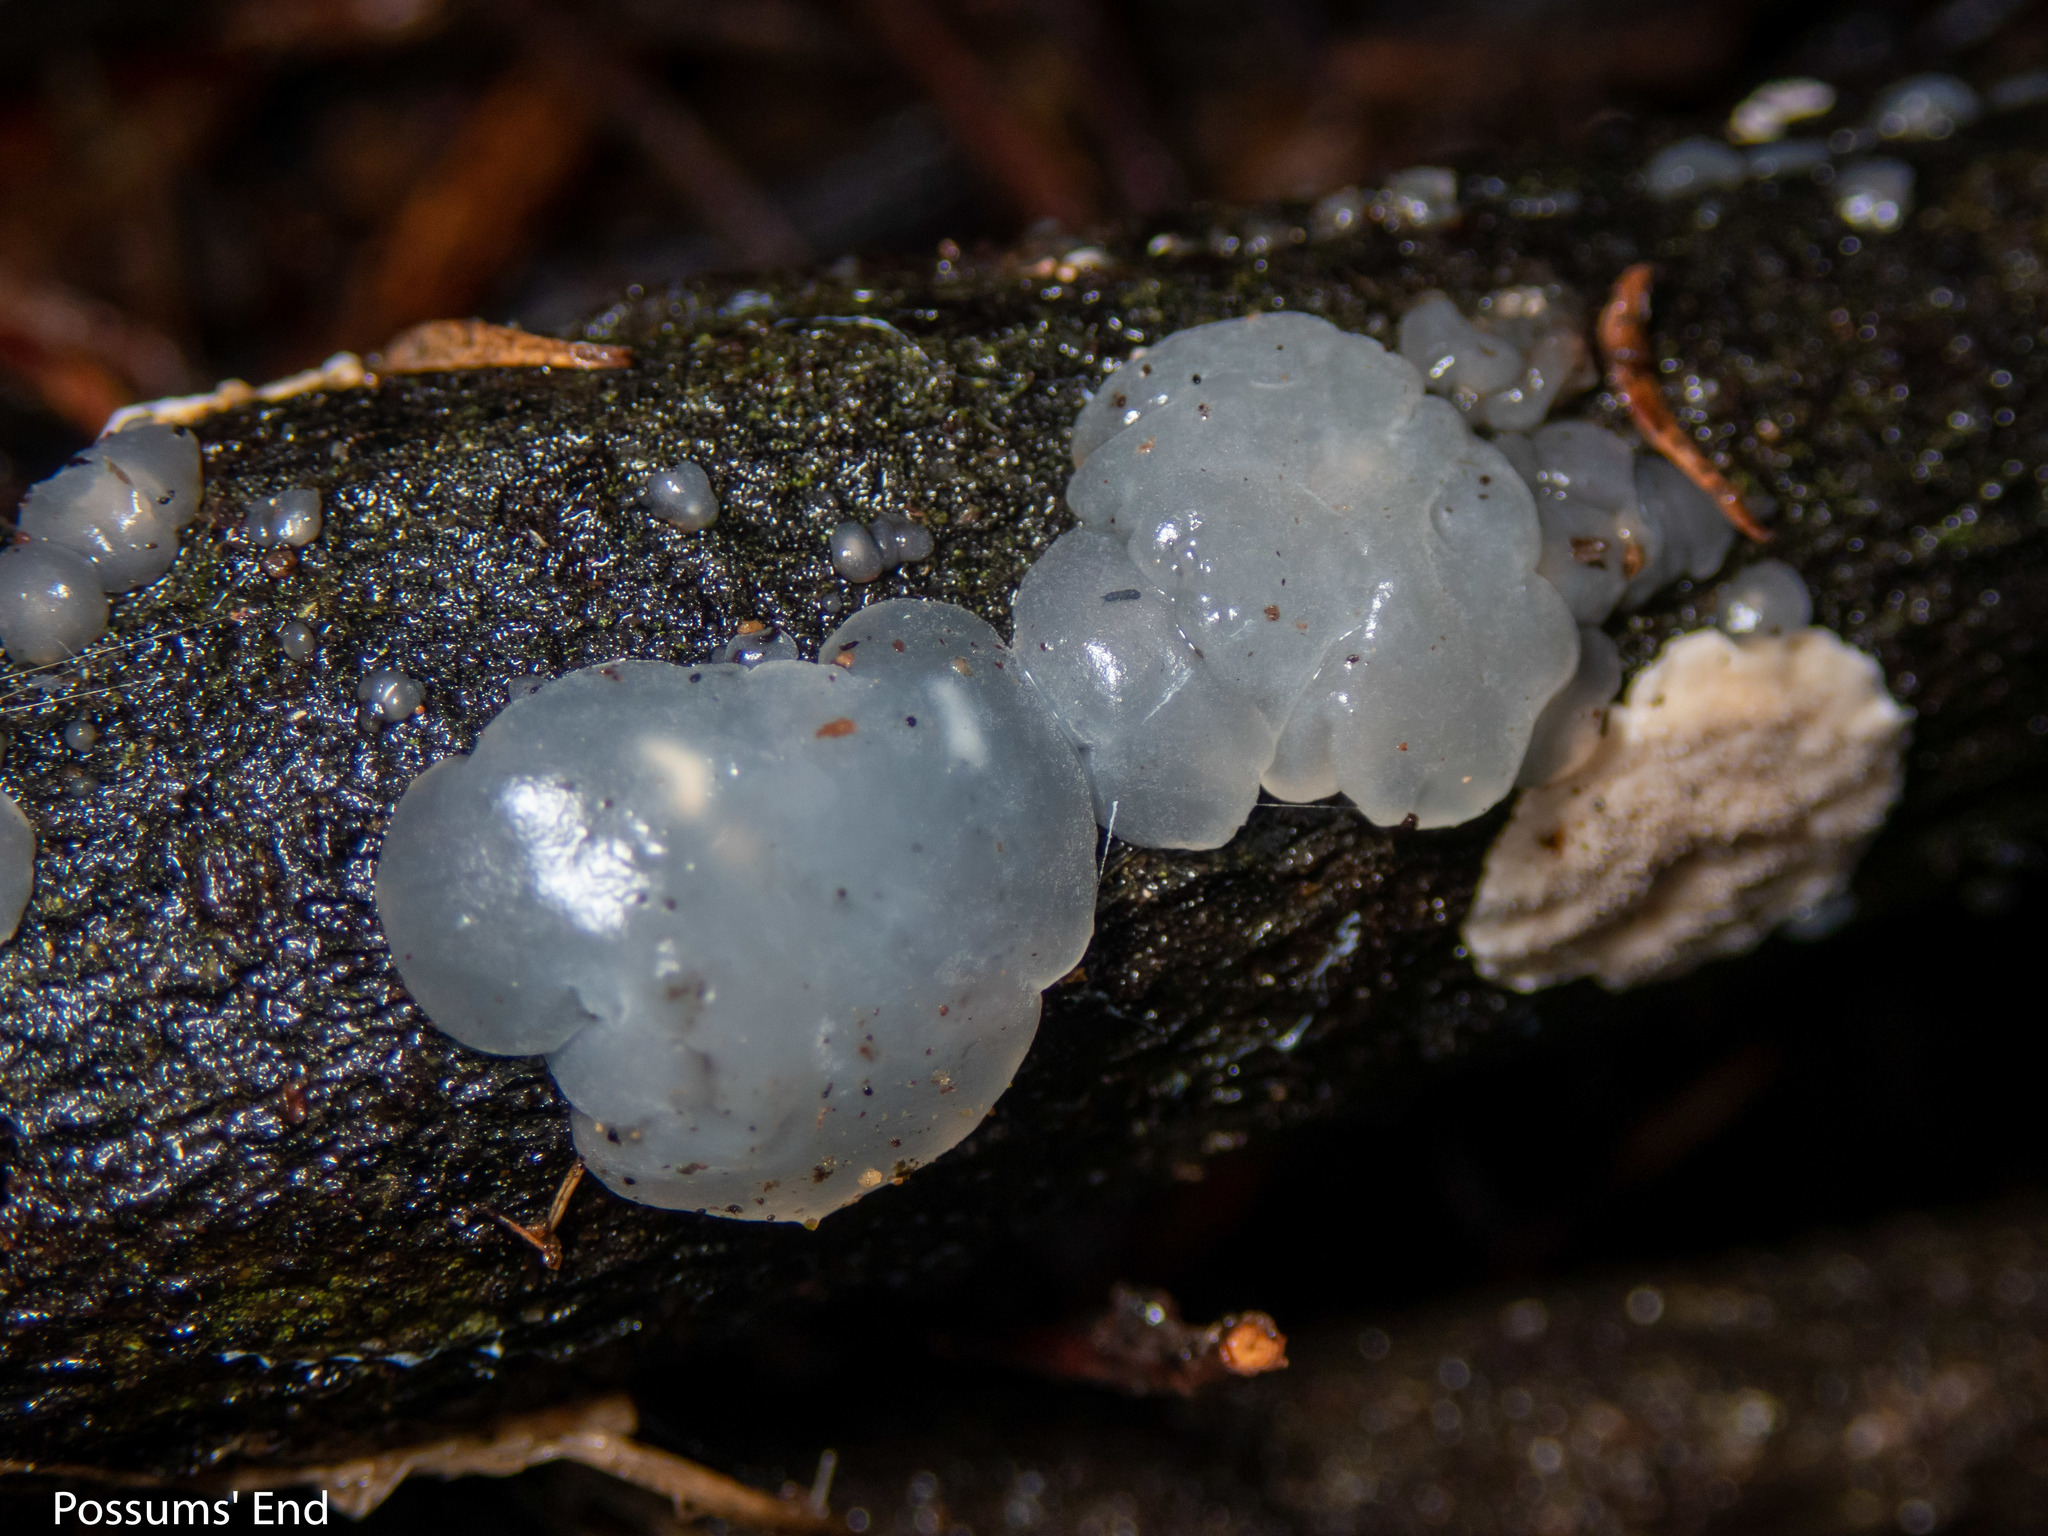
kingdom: Fungi
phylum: Basidiomycota
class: Agaricomycetes
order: Auriculariales
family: Hyaloriaceae
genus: Myxarium
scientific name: Myxarium nucleatum
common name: Crystal brain fungus
